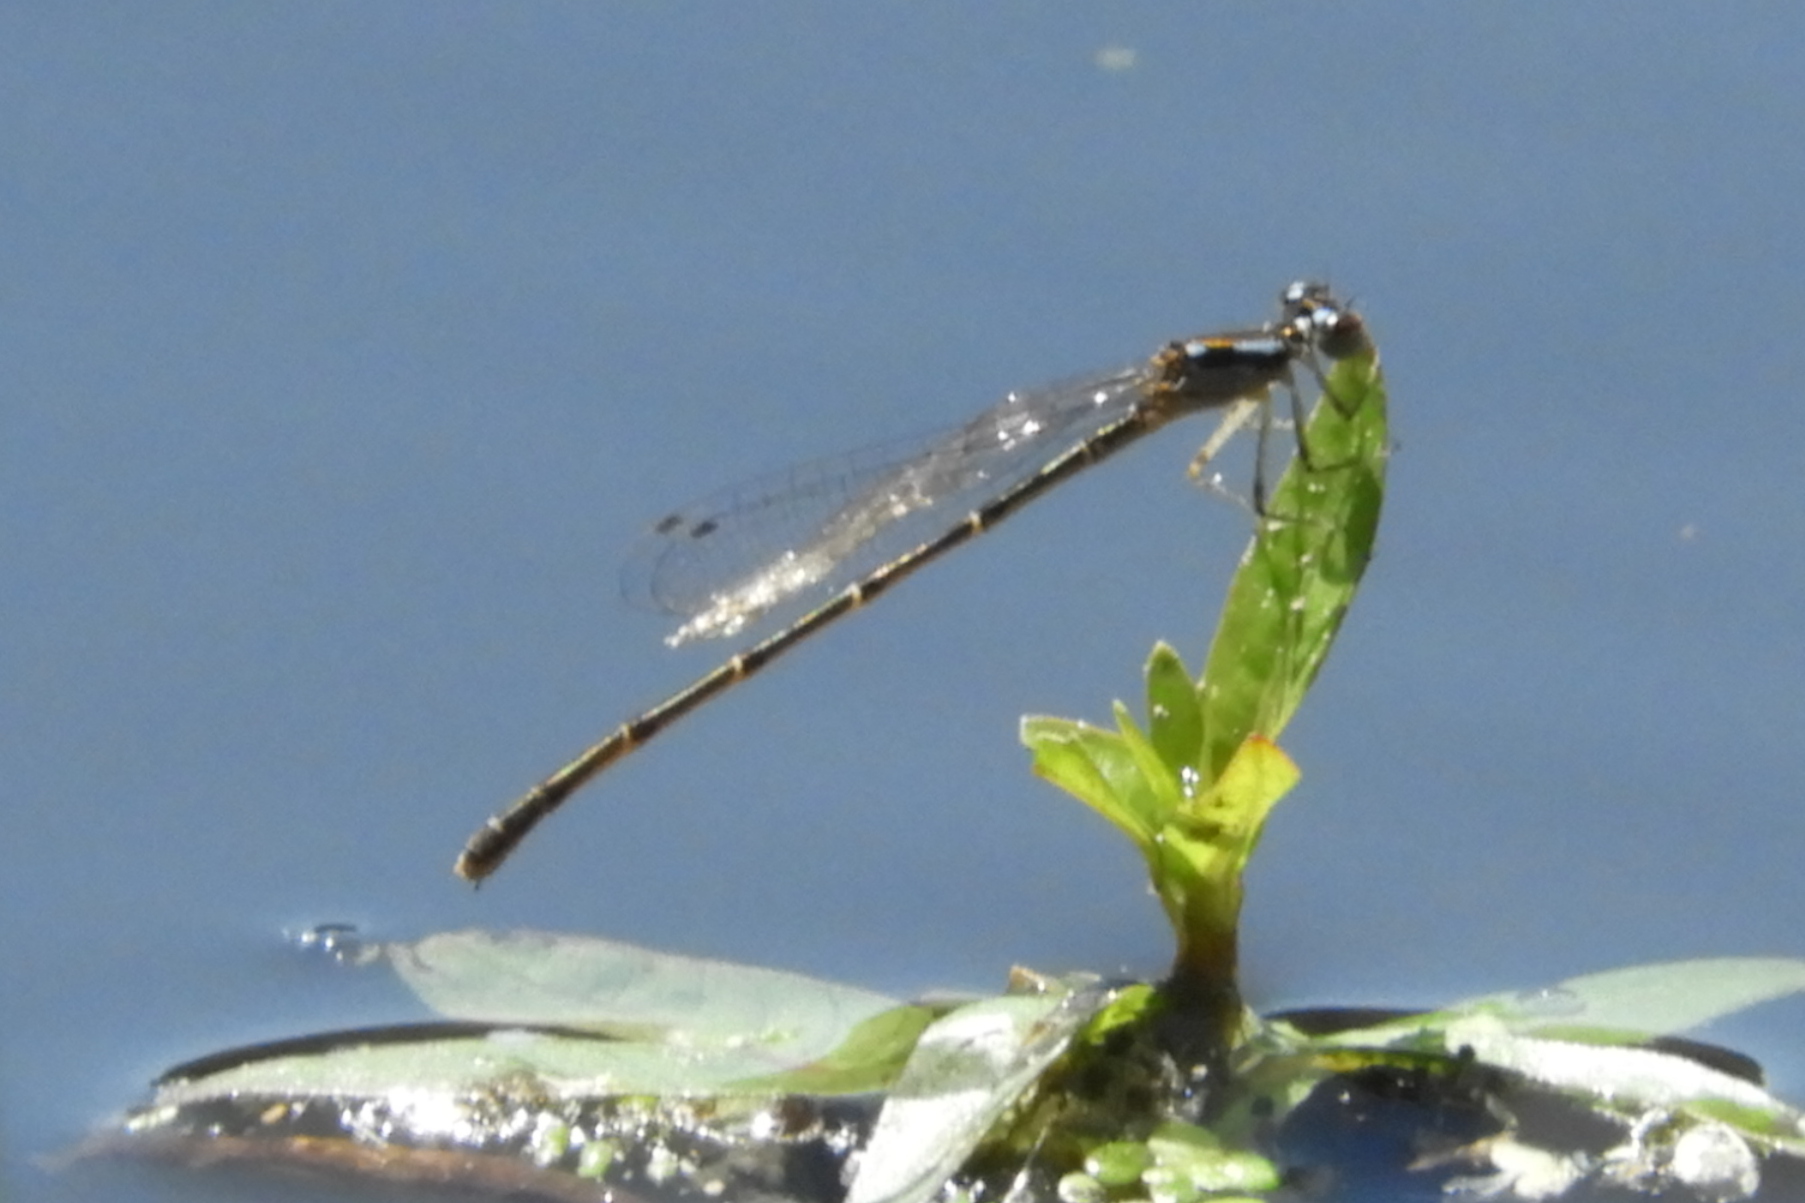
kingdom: Animalia
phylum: Arthropoda
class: Insecta
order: Odonata
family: Coenagrionidae
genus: Ischnura
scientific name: Ischnura posita
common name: Fragile forktail
